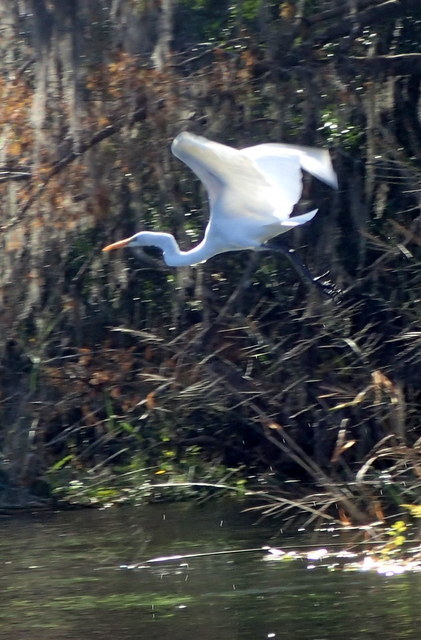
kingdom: Animalia
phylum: Chordata
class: Aves
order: Pelecaniformes
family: Ardeidae
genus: Ardea
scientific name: Ardea alba
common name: Great egret
